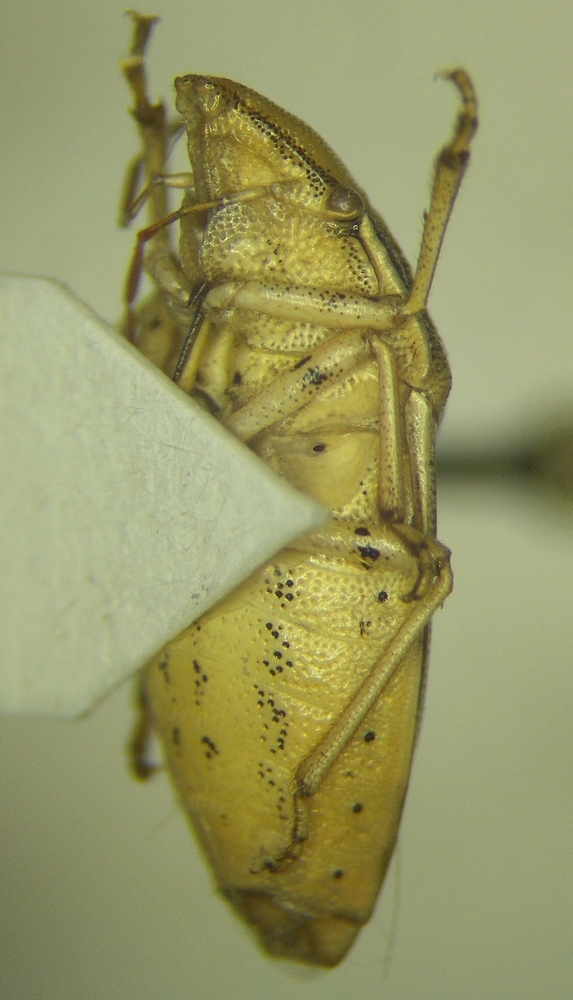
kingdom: Animalia
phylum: Arthropoda
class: Insecta
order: Hemiptera
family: Pentatomidae
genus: Aelia
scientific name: Aelia acuminata
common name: Bishop's mitre
